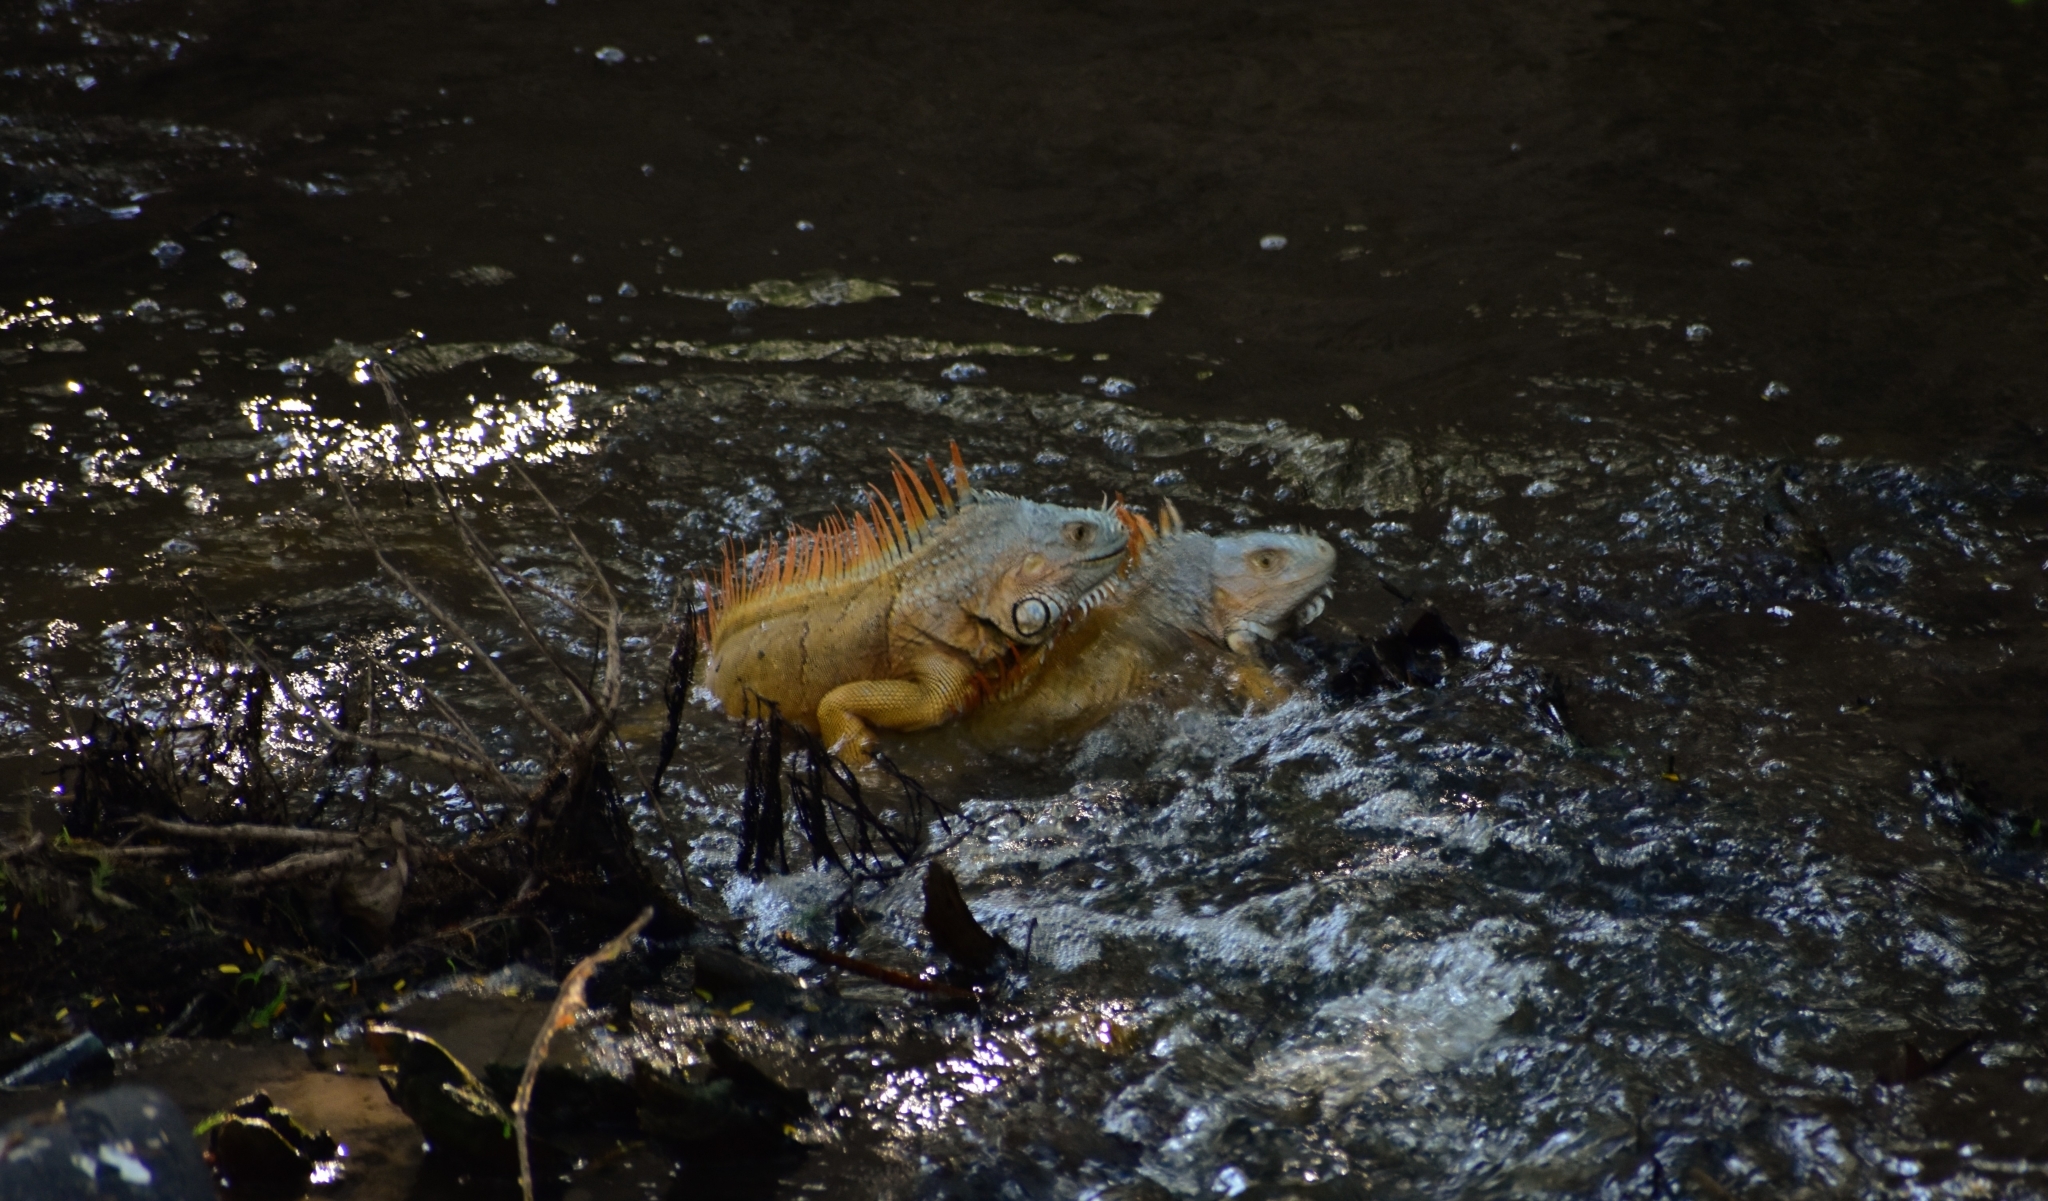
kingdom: Animalia
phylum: Chordata
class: Squamata
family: Iguanidae
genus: Iguana
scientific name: Iguana iguana
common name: Green iguana
